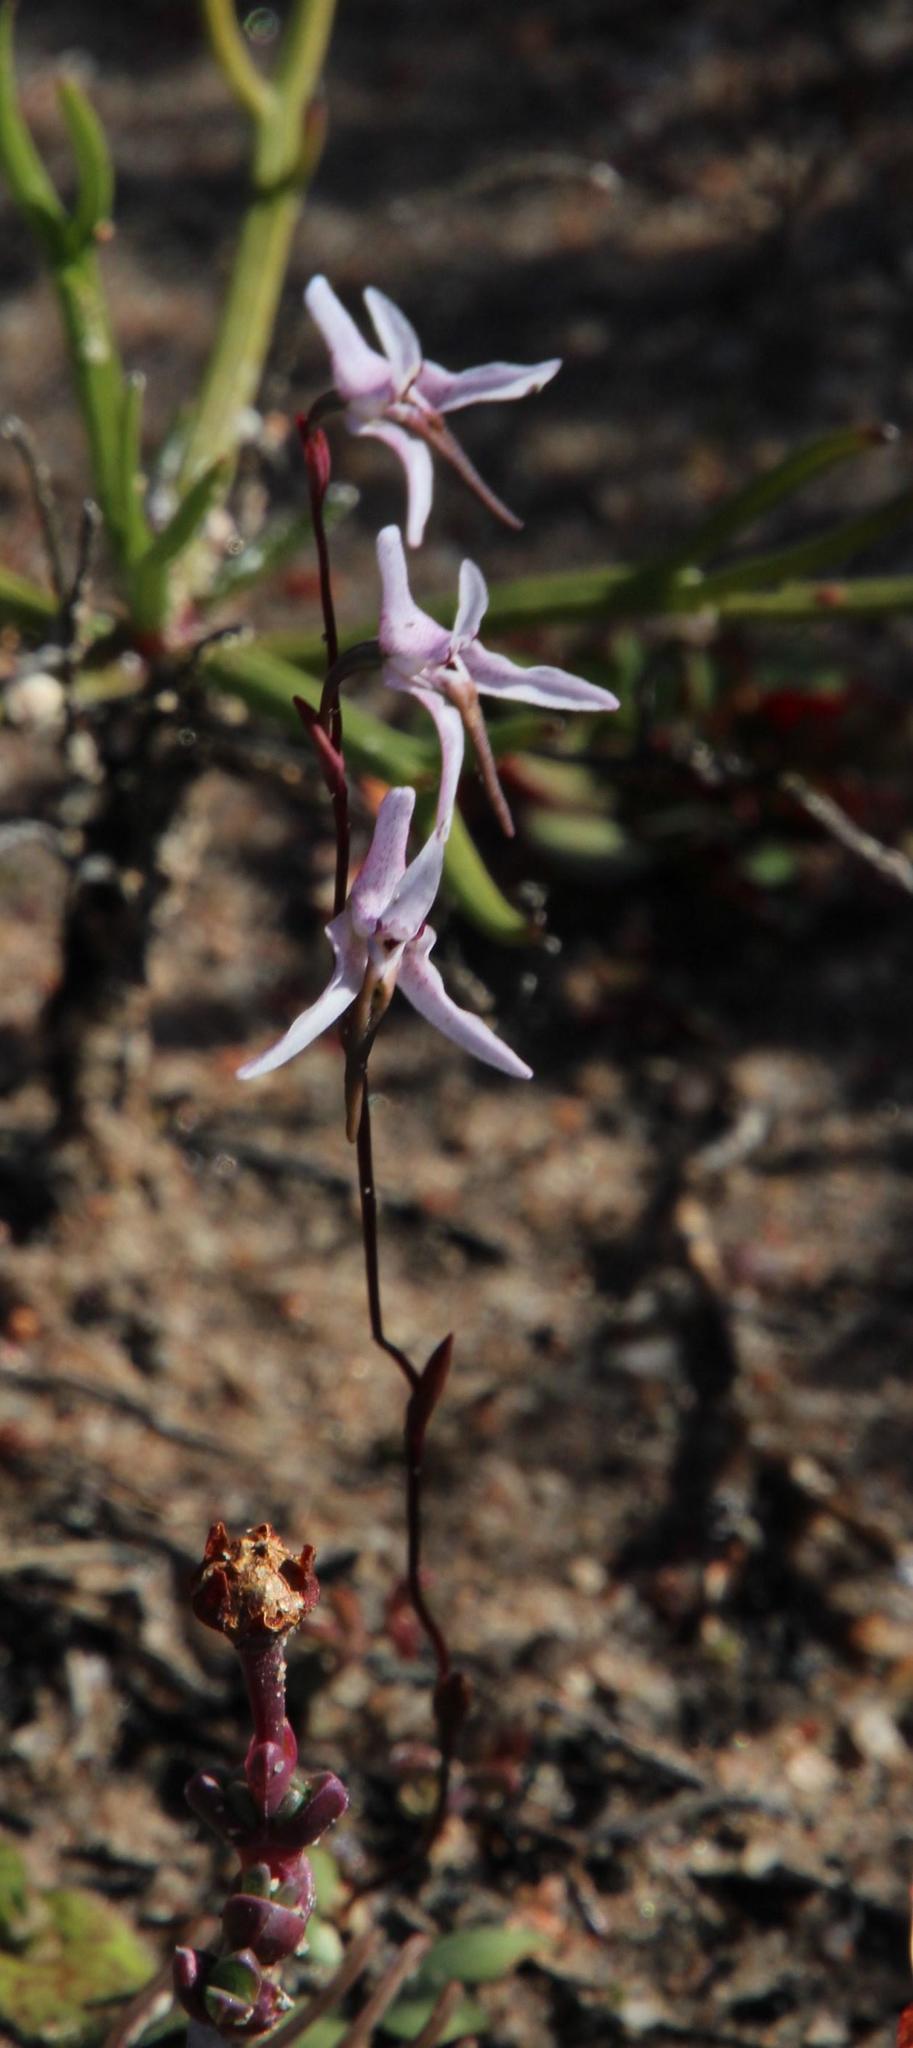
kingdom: Plantae
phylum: Tracheophyta
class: Liliopsida
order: Asparagales
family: Orchidaceae
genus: Disa
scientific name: Disa biflora
